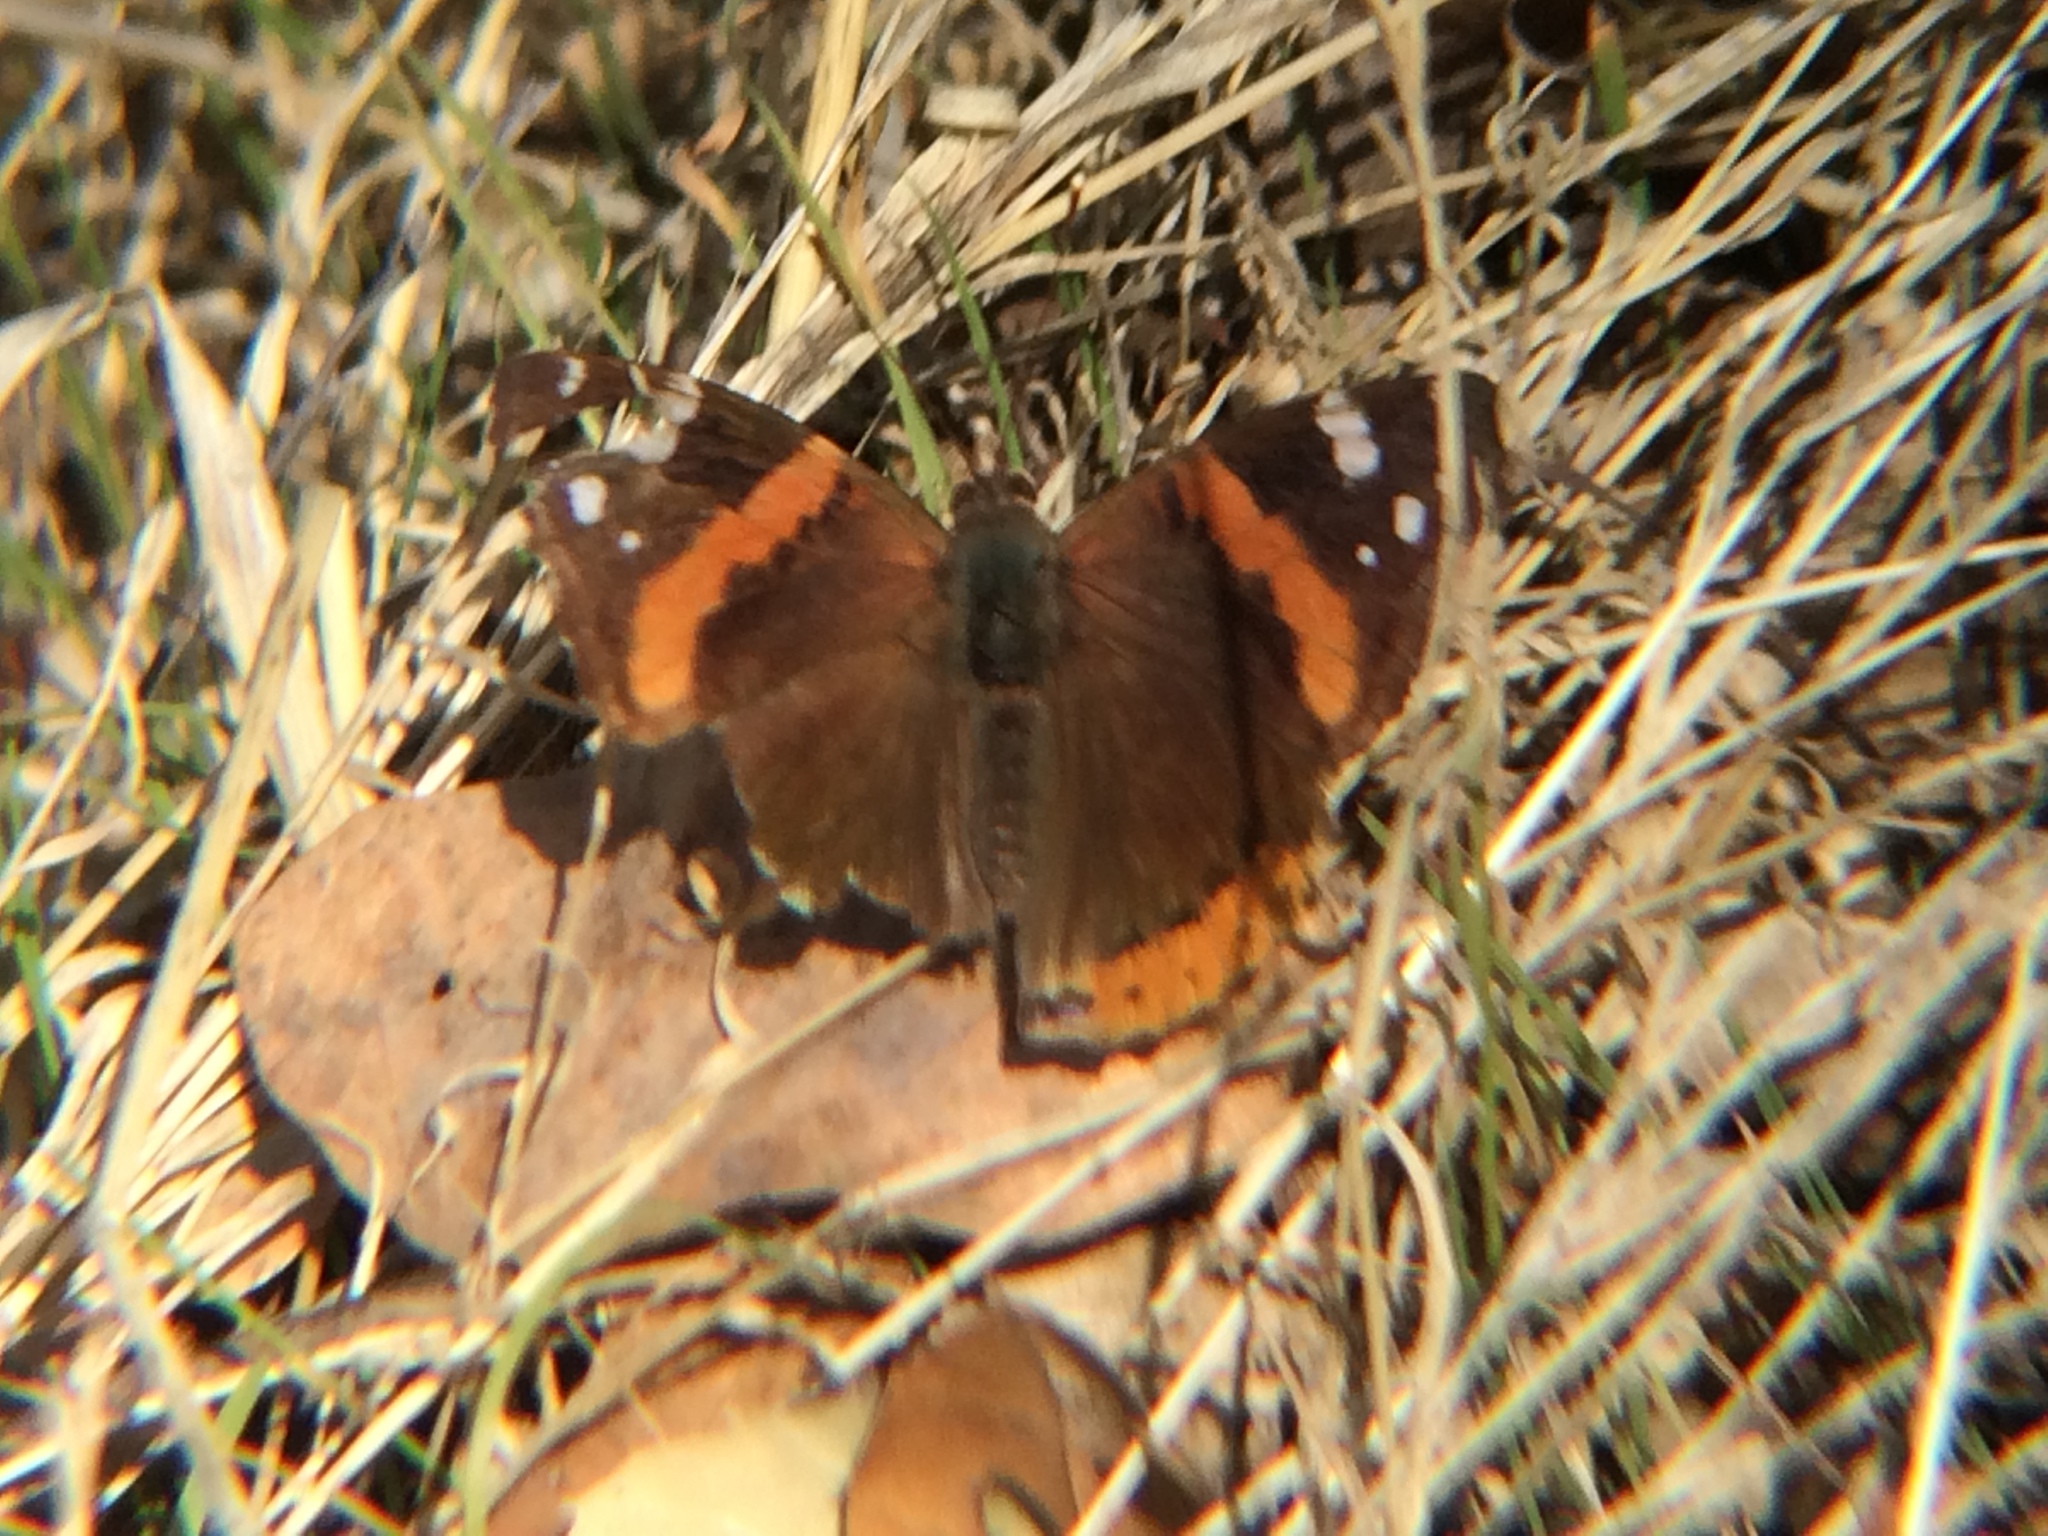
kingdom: Animalia
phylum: Arthropoda
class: Insecta
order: Lepidoptera
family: Nymphalidae
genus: Vanessa
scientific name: Vanessa atalanta
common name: Red admiral
